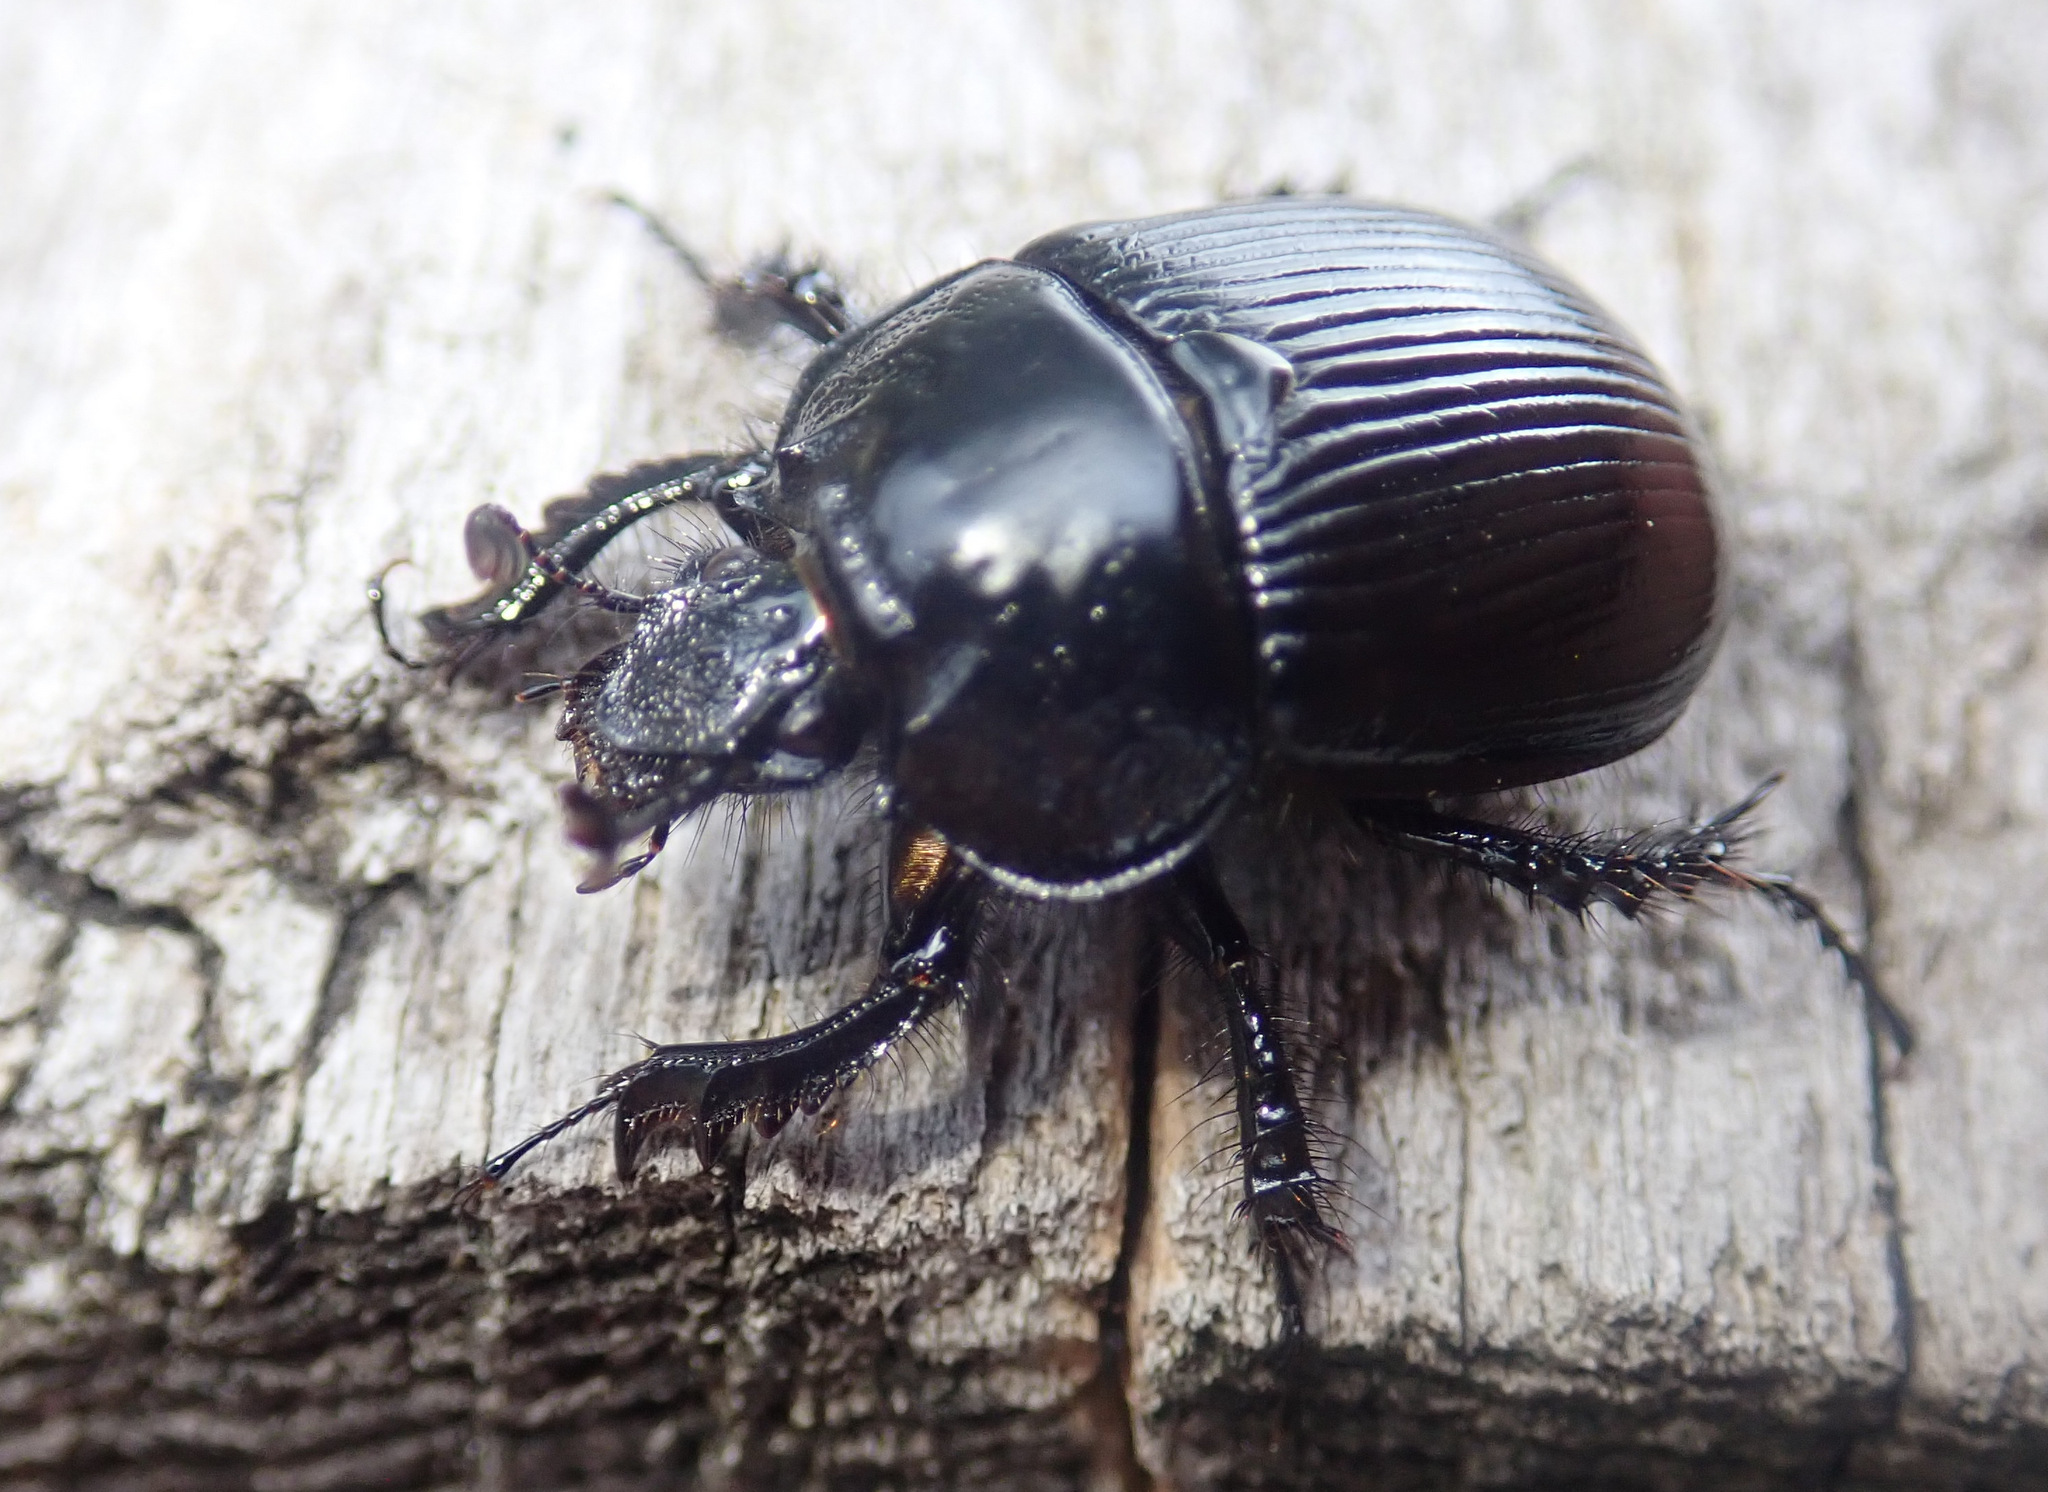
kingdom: Animalia
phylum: Arthropoda
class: Insecta
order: Coleoptera
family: Geotrupidae
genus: Typhaeus
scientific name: Typhaeus typhoeus
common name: Minotaur beetle
